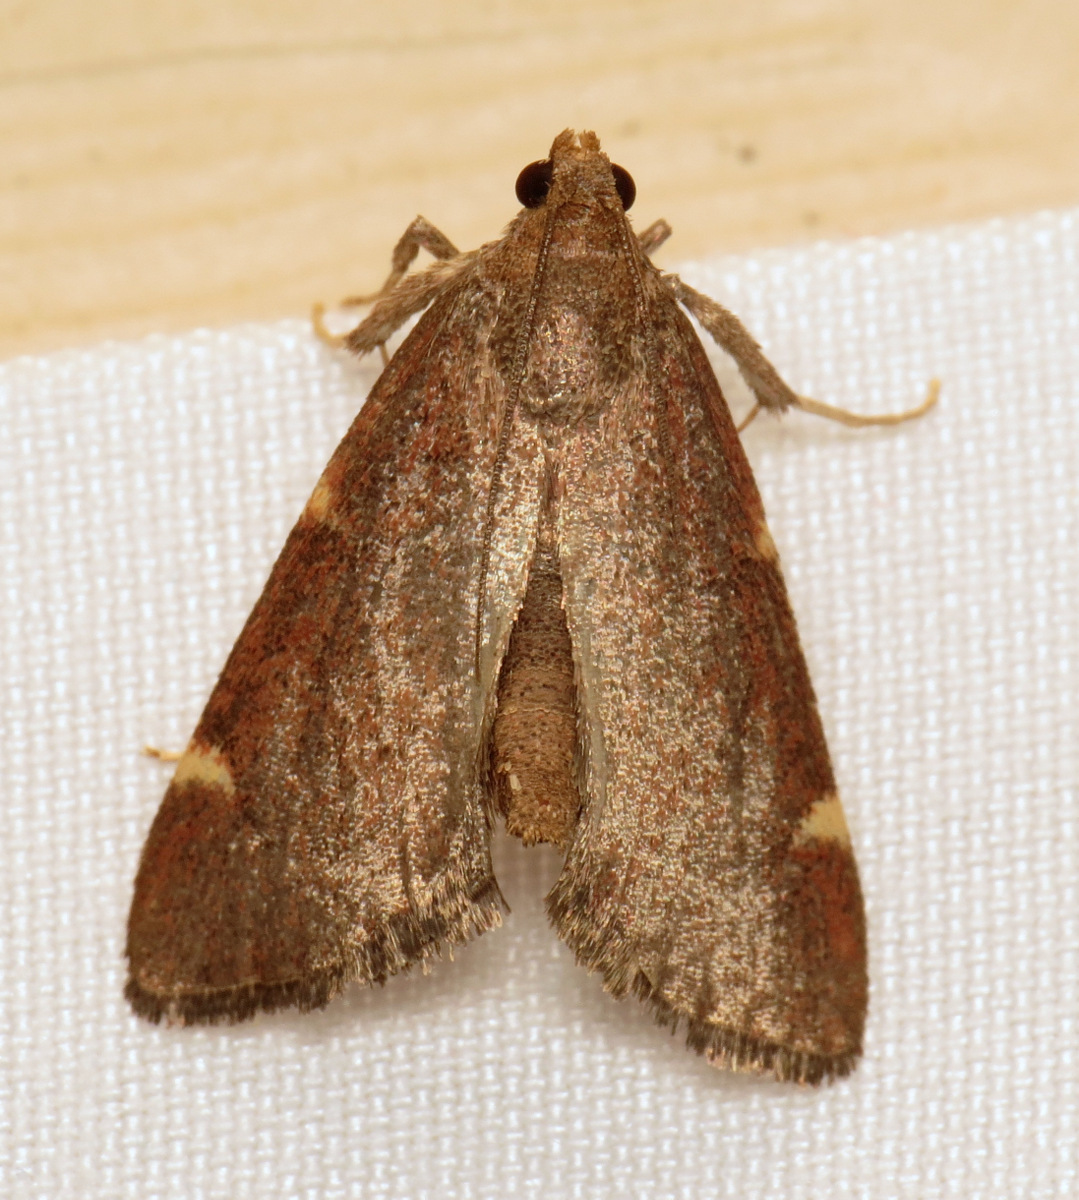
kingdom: Animalia
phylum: Arthropoda
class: Insecta
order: Lepidoptera
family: Pyralidae
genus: Hypsopygia
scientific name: Hypsopygia olinalis
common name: Yellow-fringed dolichomia moth
